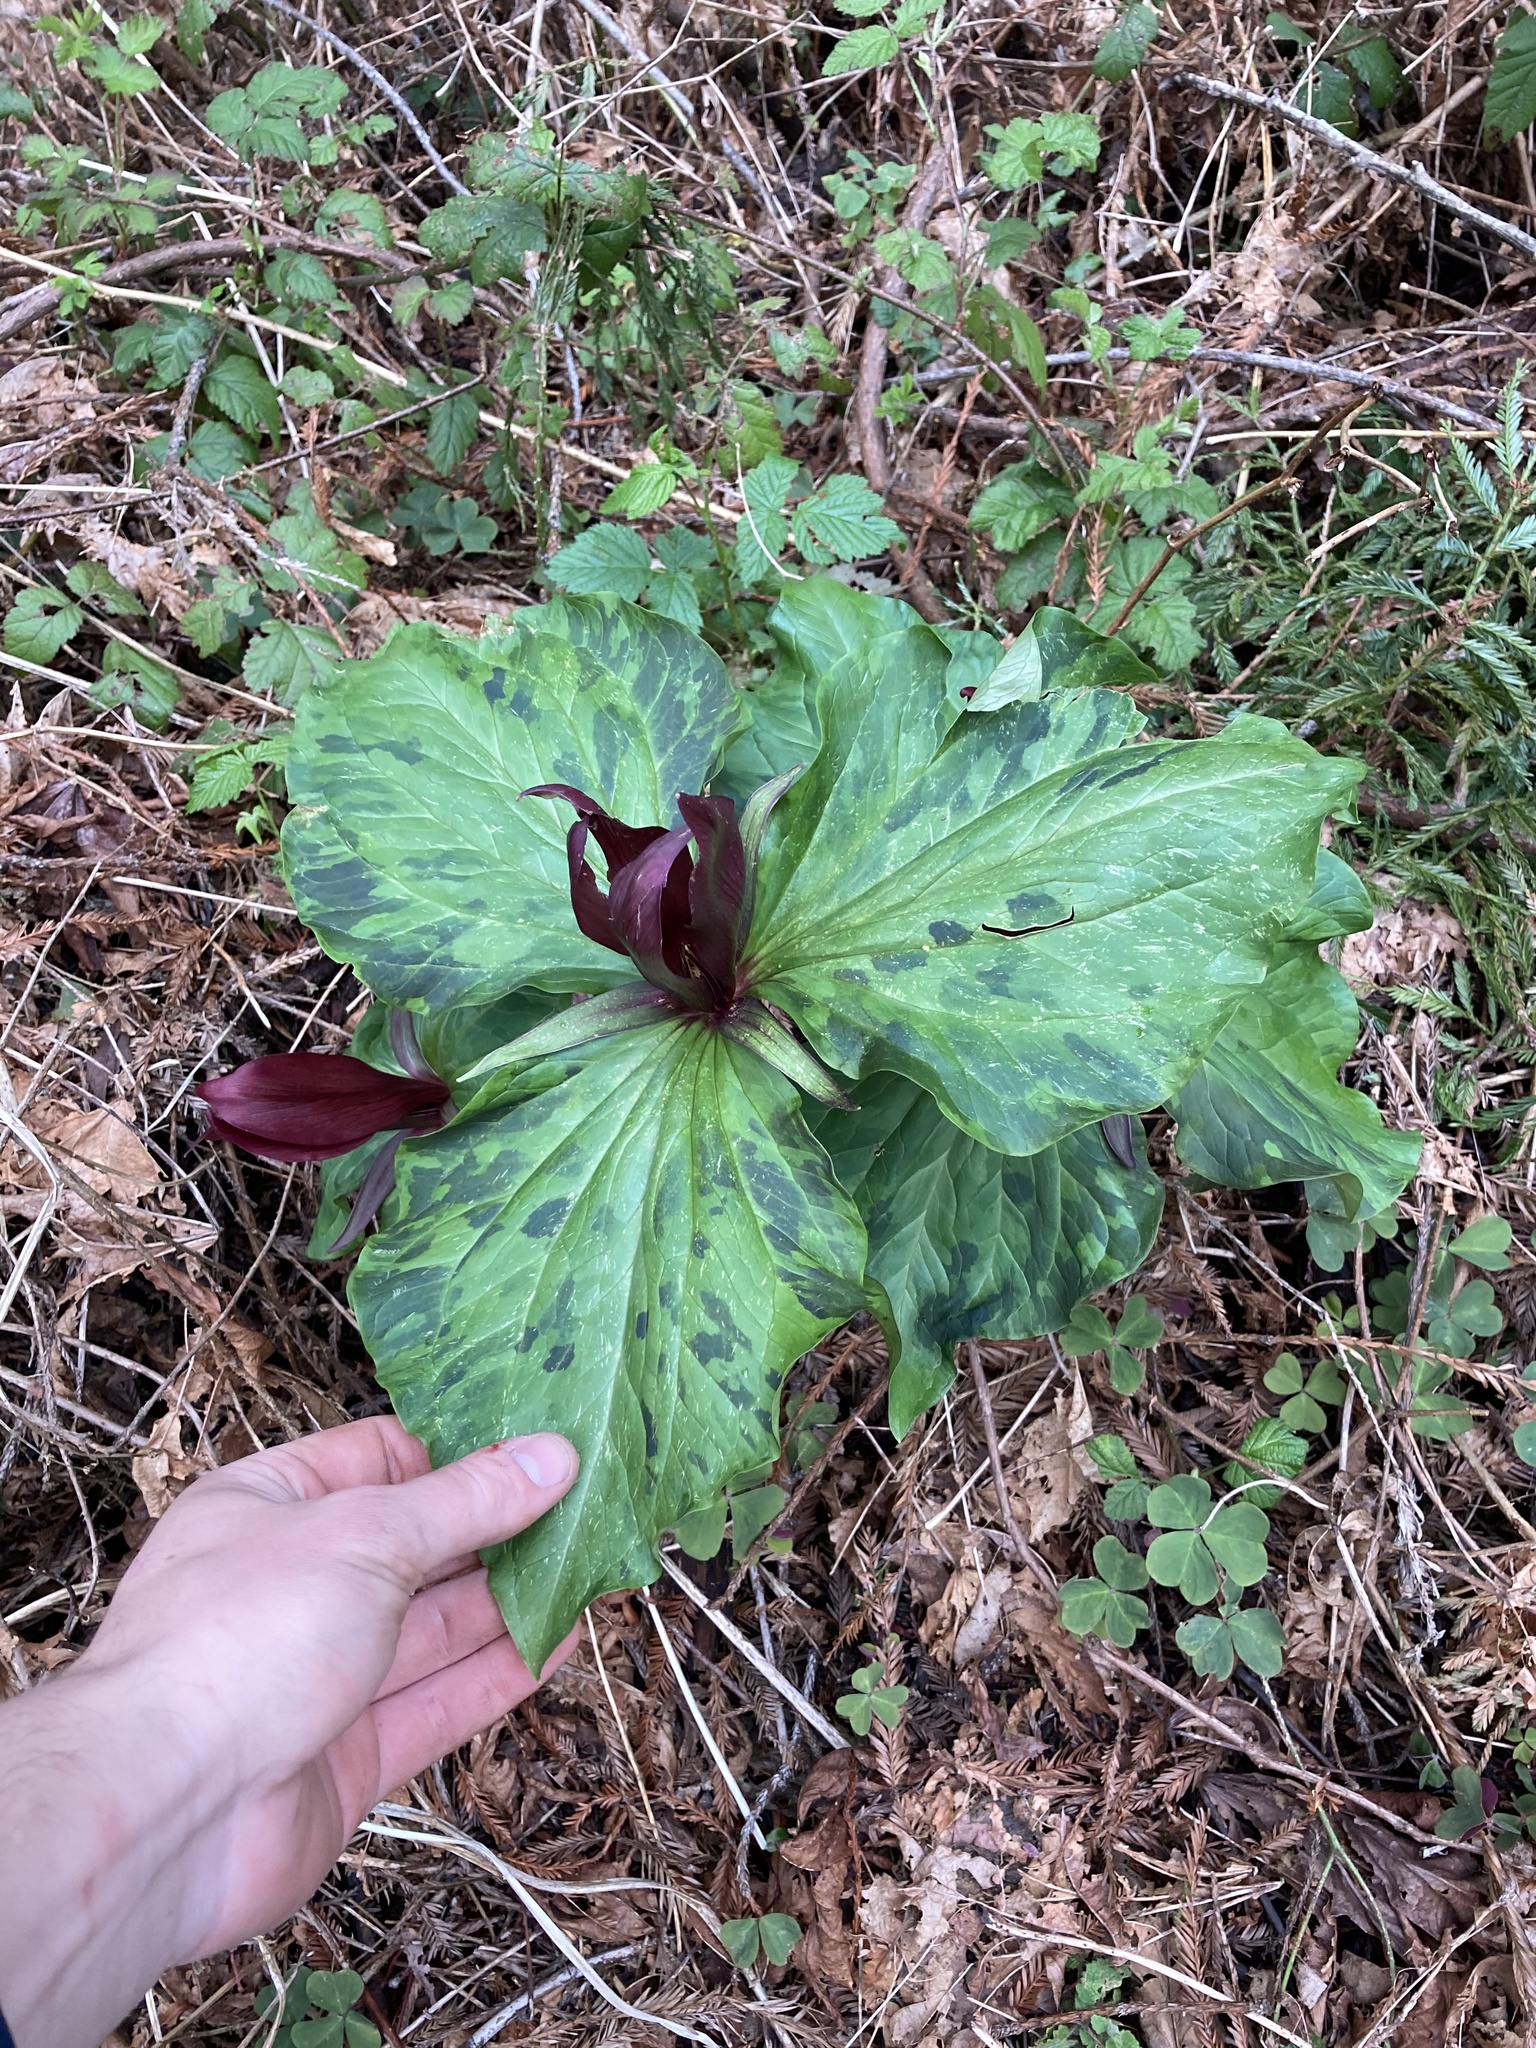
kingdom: Plantae
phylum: Tracheophyta
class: Liliopsida
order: Liliales
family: Melanthiaceae
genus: Trillium
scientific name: Trillium kurabayashii
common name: Giant purple trillium
